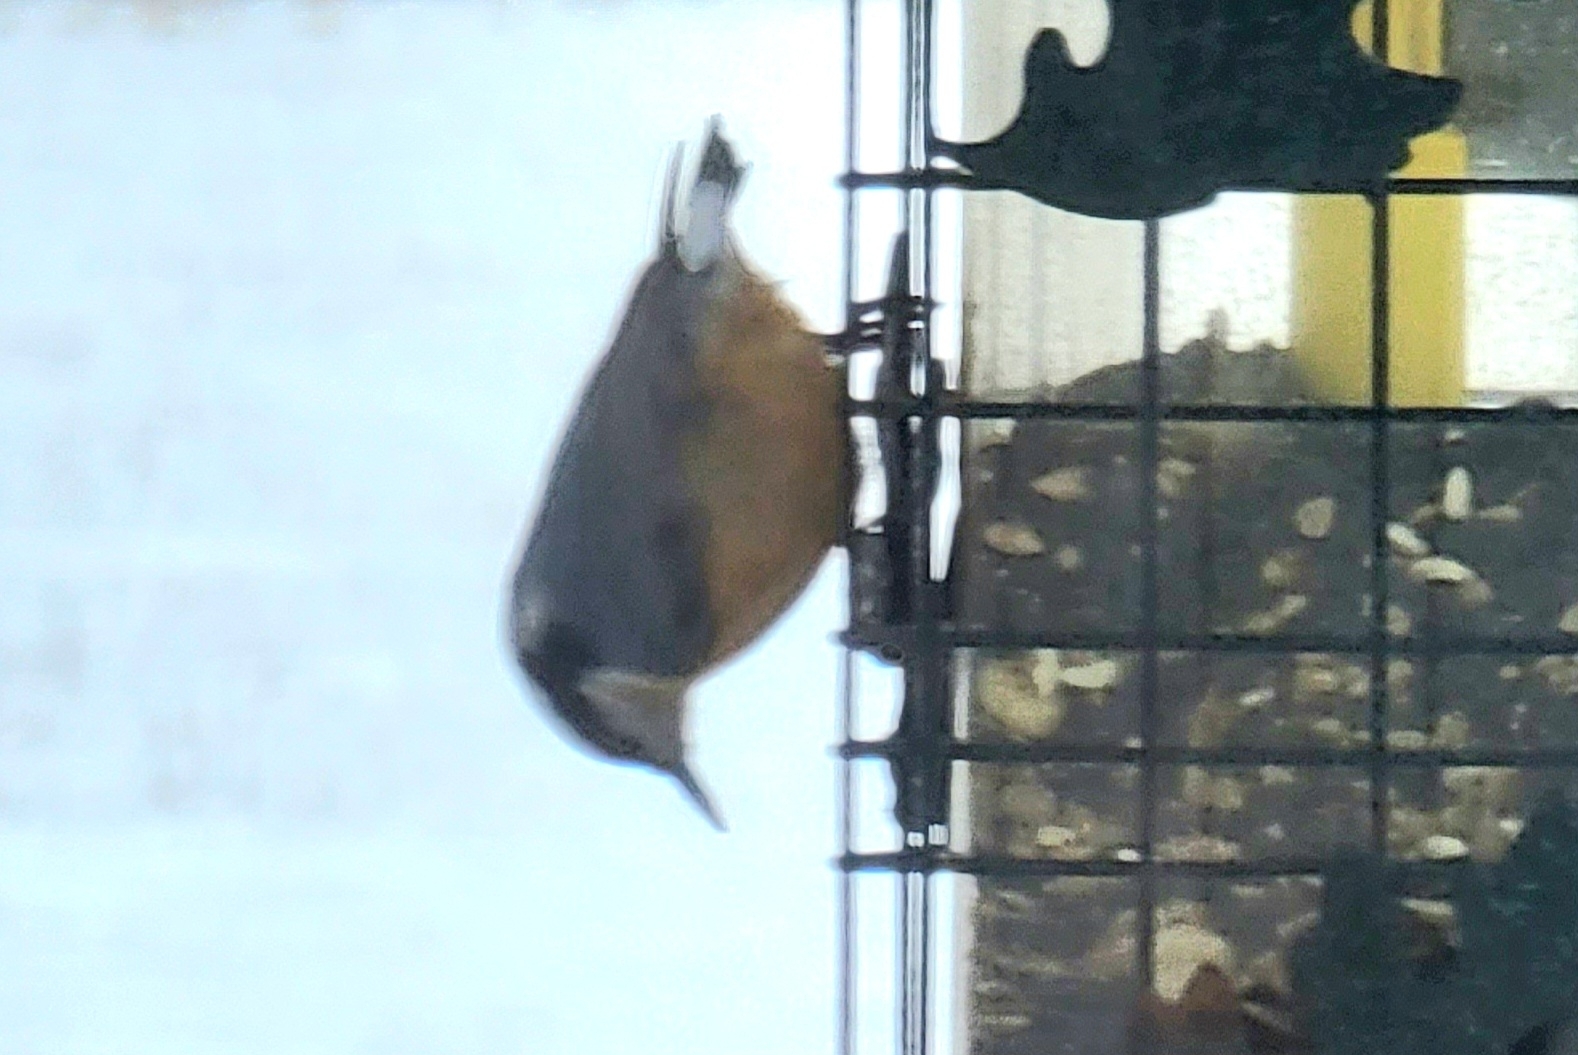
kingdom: Animalia
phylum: Chordata
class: Aves
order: Passeriformes
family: Sittidae
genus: Sitta
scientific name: Sitta canadensis
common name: Red-breasted nuthatch
